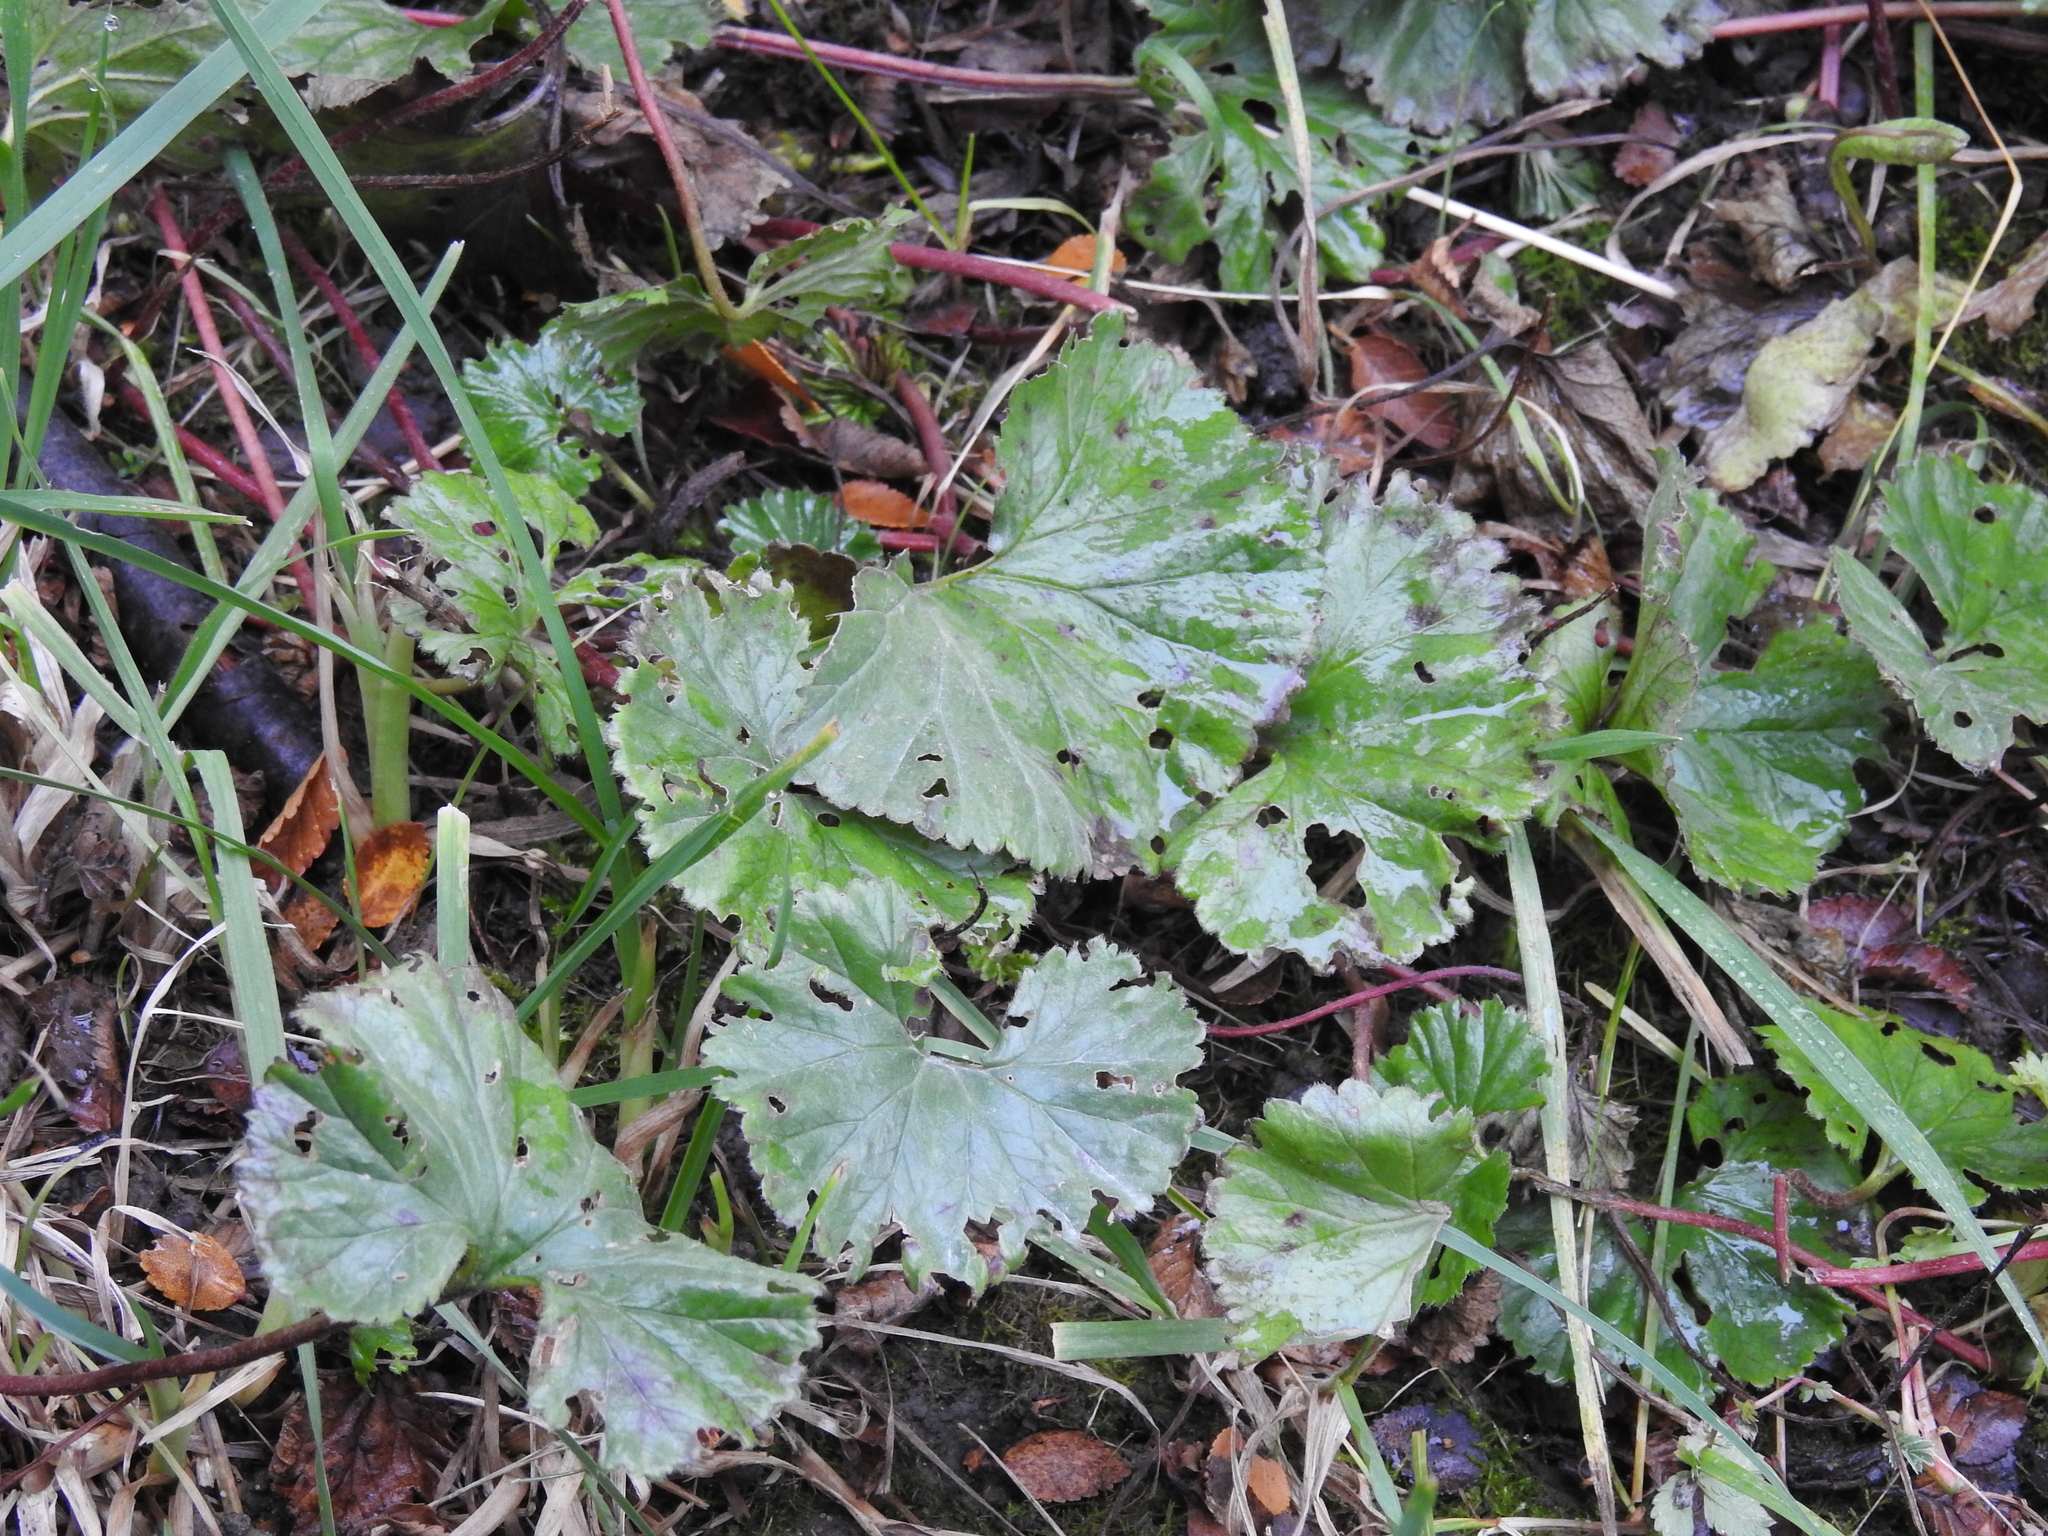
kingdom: Plantae
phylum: Tracheophyta
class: Magnoliopsida
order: Gunnerales
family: Gunneraceae
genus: Gunnera
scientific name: Gunnera magellanica
